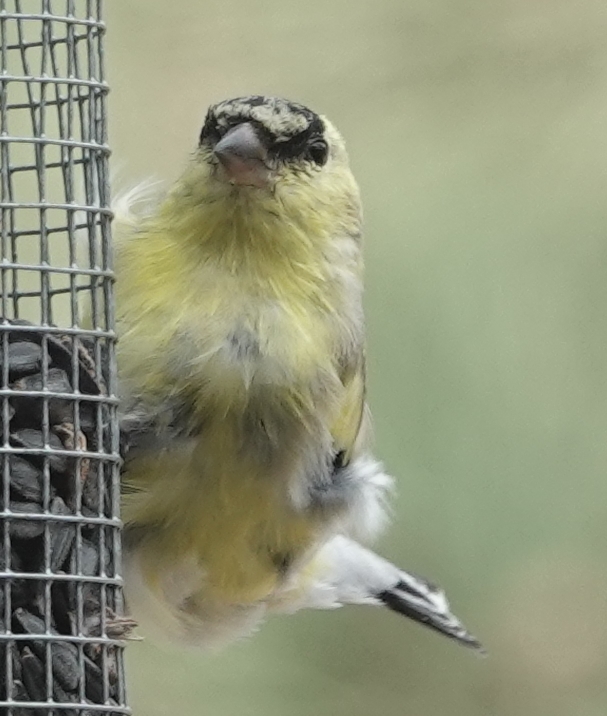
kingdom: Animalia
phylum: Chordata
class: Aves
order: Passeriformes
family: Fringillidae
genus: Spinus
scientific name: Spinus tristis
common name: American goldfinch
